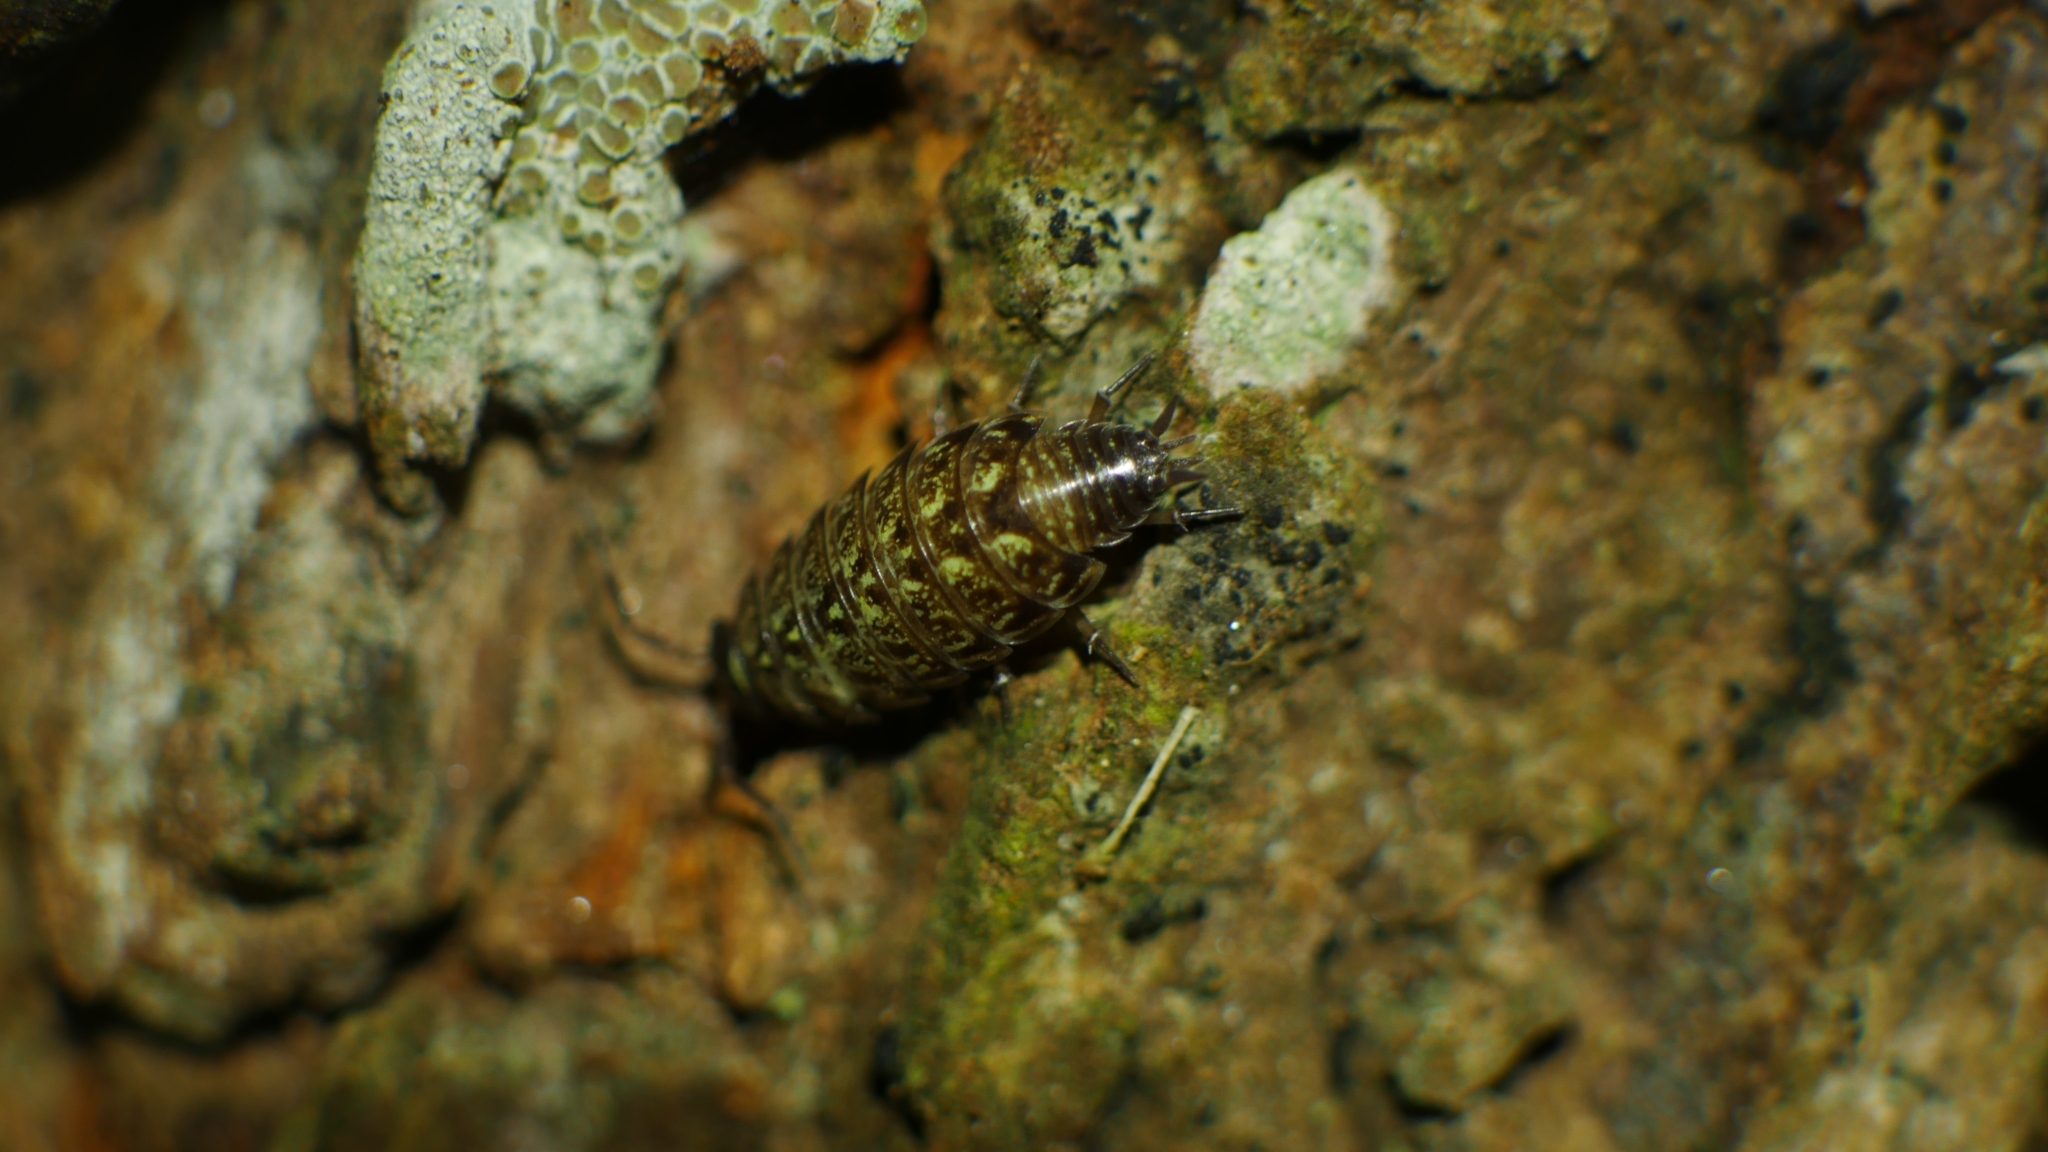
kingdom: Animalia
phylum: Arthropoda
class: Malacostraca
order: Isopoda
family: Philosciidae
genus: Philoscia
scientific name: Philoscia muscorum
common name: Common striped woodlouse
